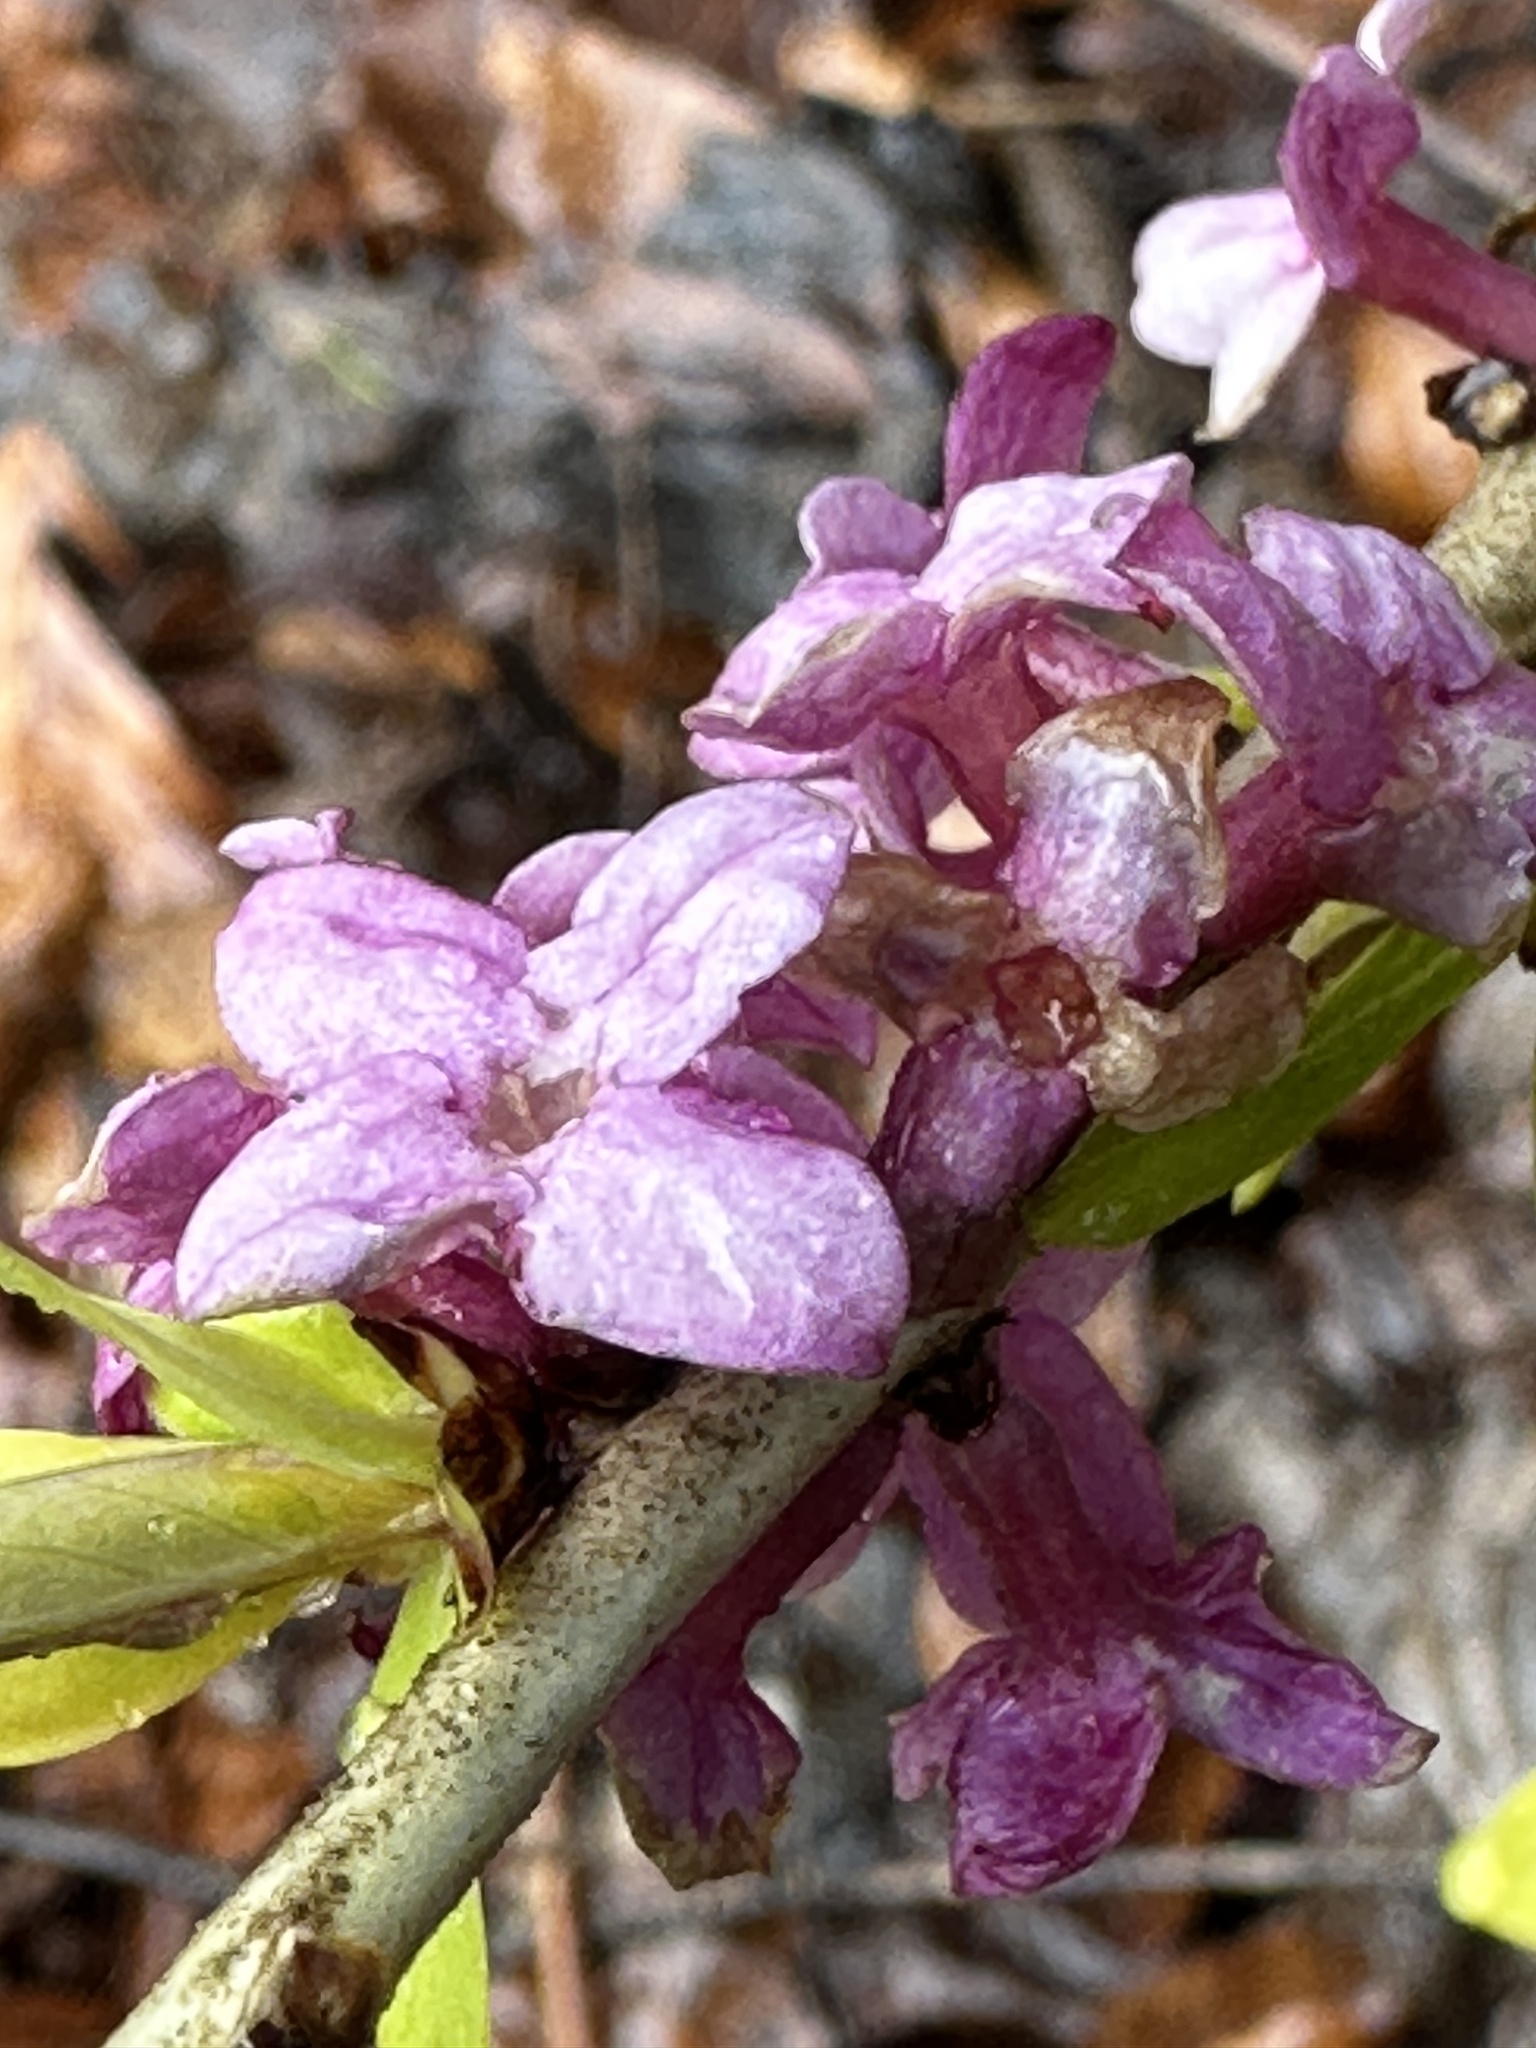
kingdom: Plantae
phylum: Tracheophyta
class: Magnoliopsida
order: Malvales
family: Thymelaeaceae
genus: Daphne
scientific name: Daphne mezereum
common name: Mezereon
